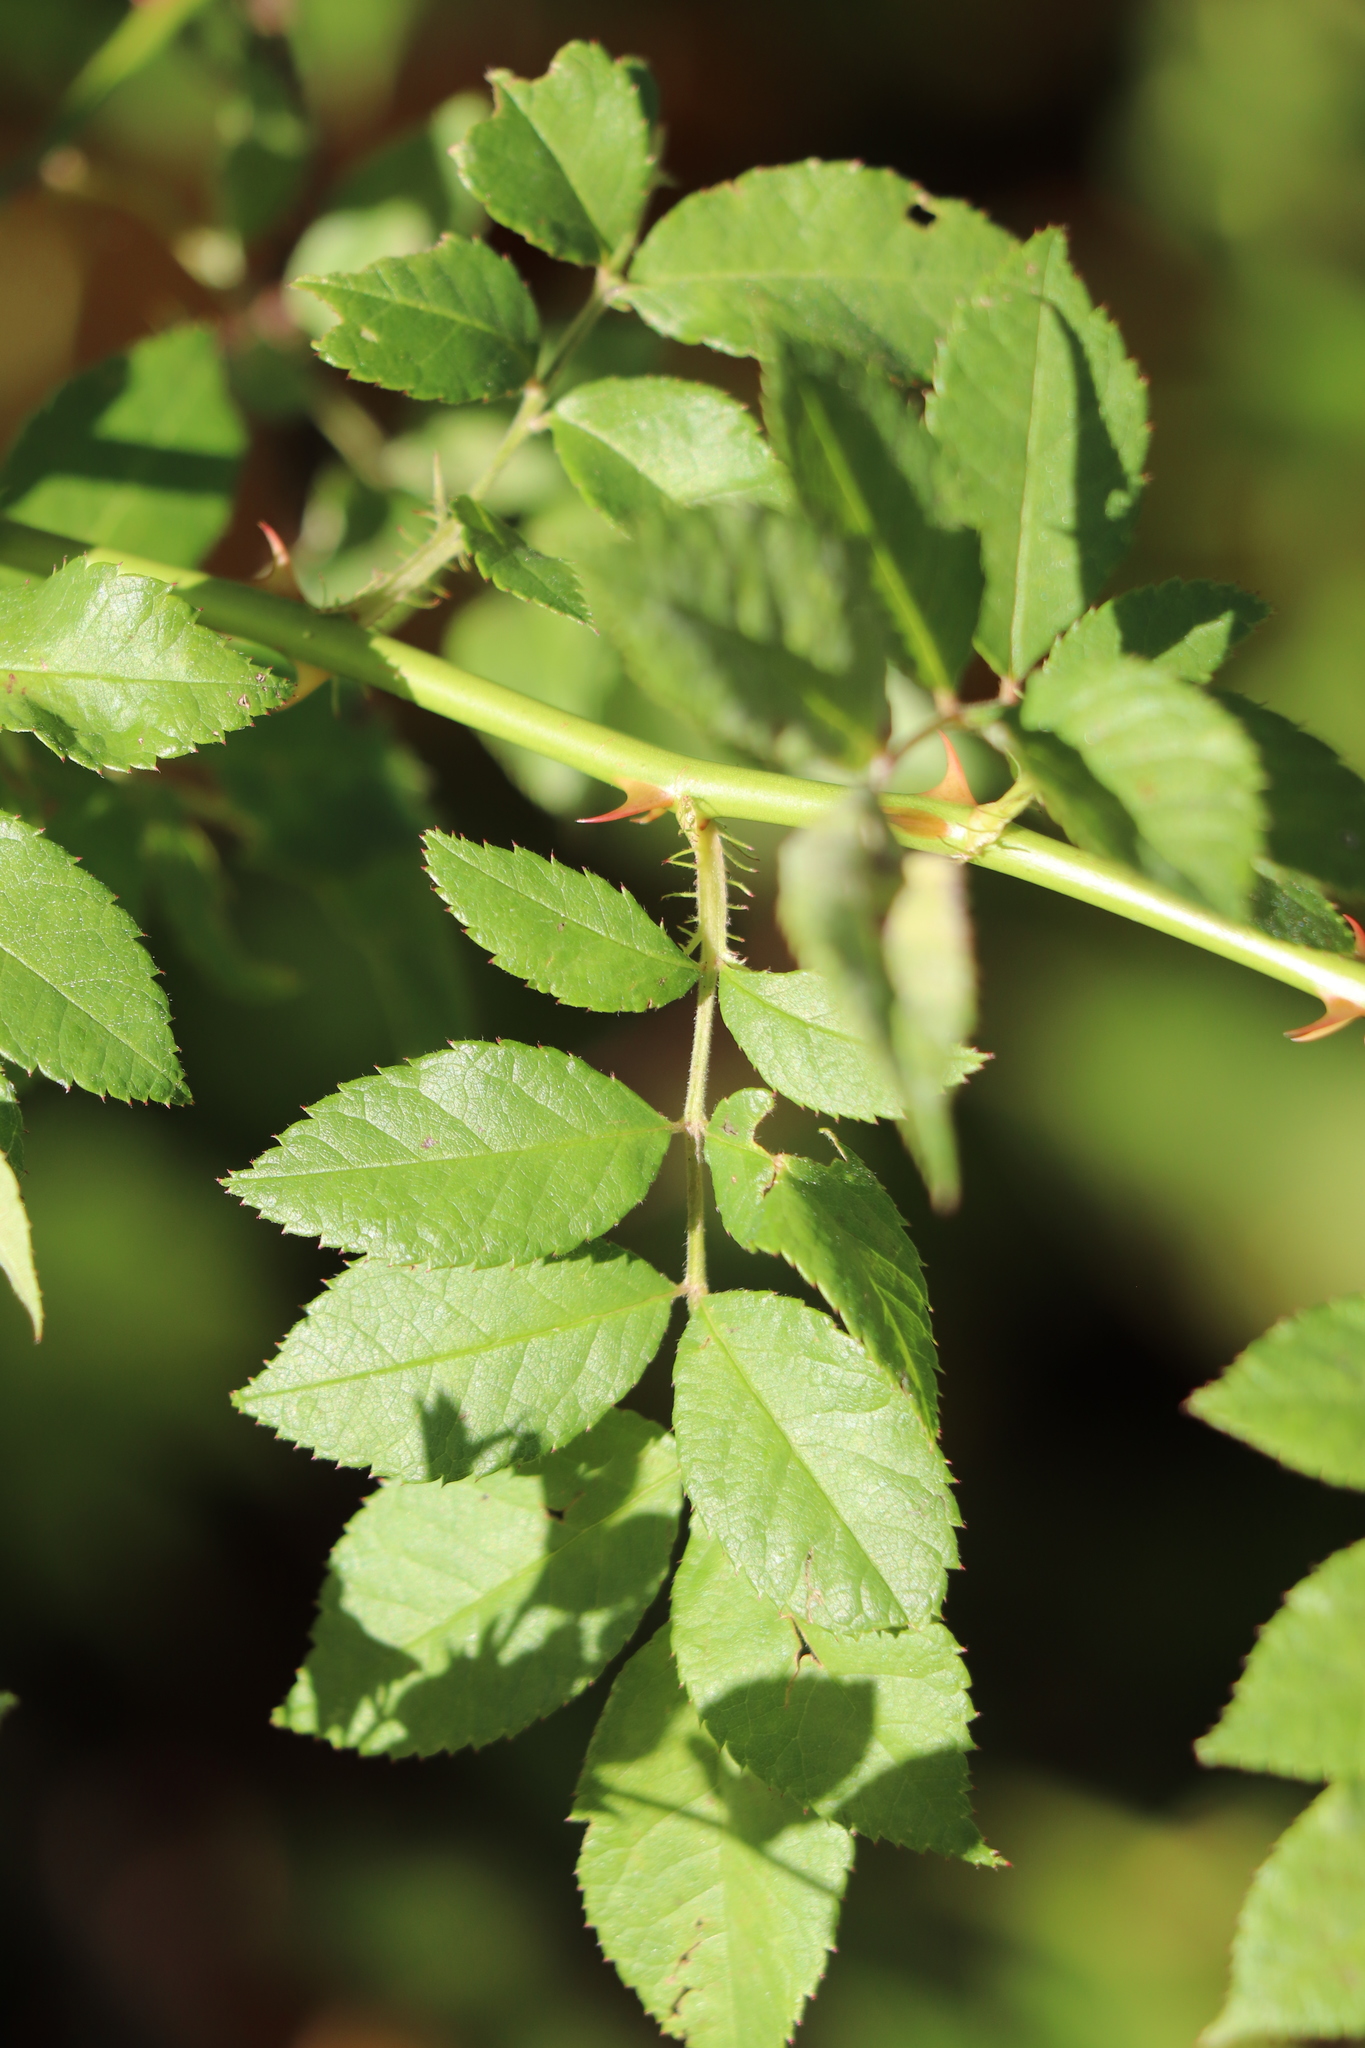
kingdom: Plantae
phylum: Tracheophyta
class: Magnoliopsida
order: Rosales
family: Rosaceae
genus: Rosa
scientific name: Rosa multiflora
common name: Multiflora rose
